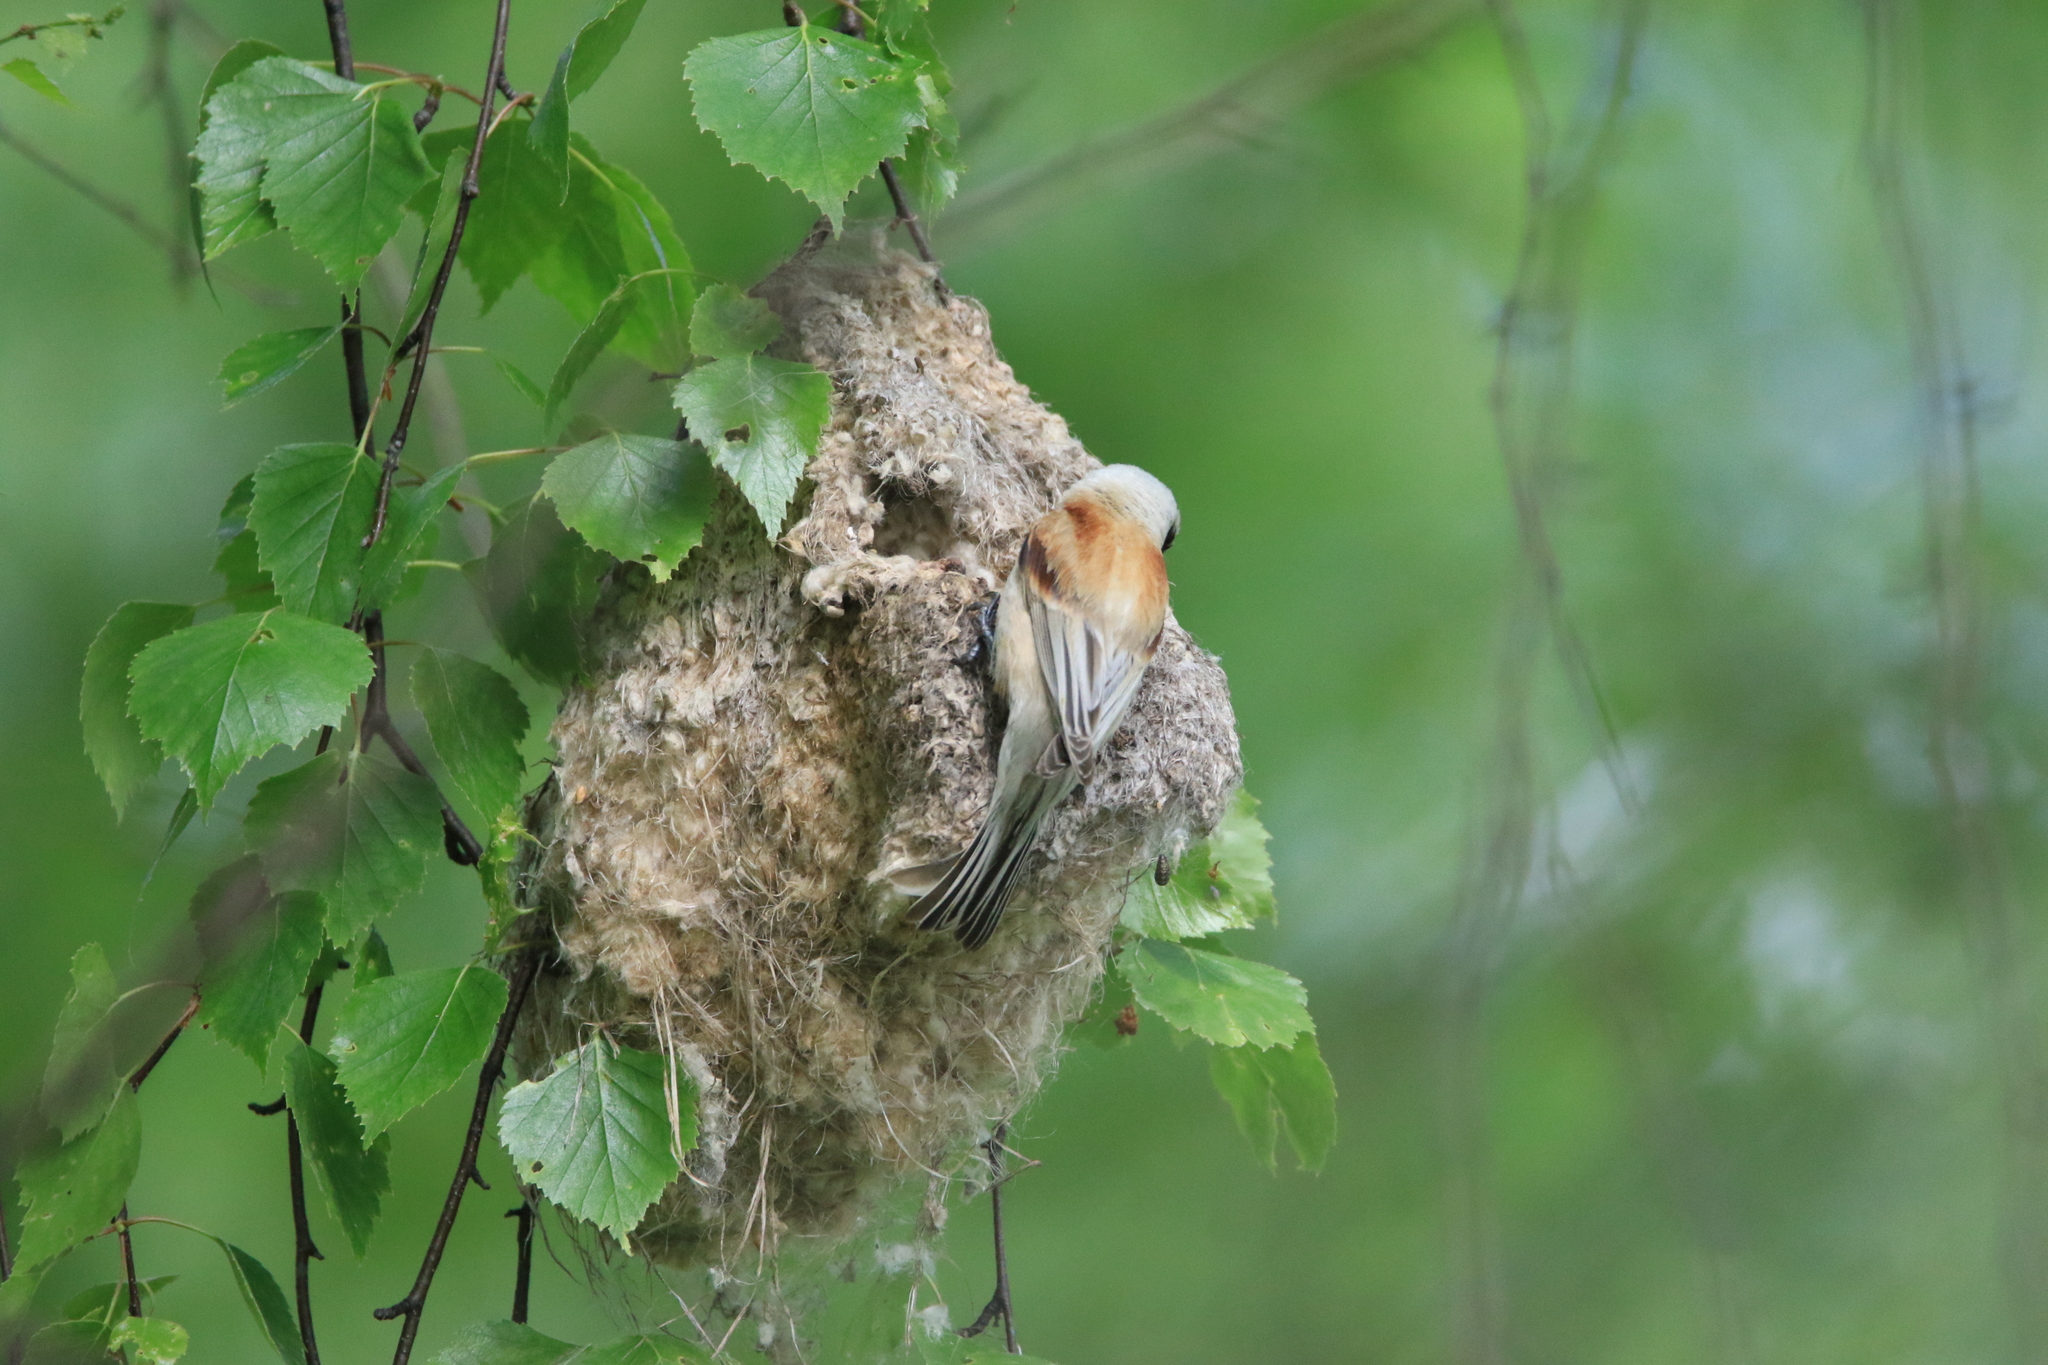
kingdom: Animalia
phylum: Chordata
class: Aves
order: Passeriformes
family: Remizidae
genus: Remiz
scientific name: Remiz pendulinus
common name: Eurasian penduline tit
